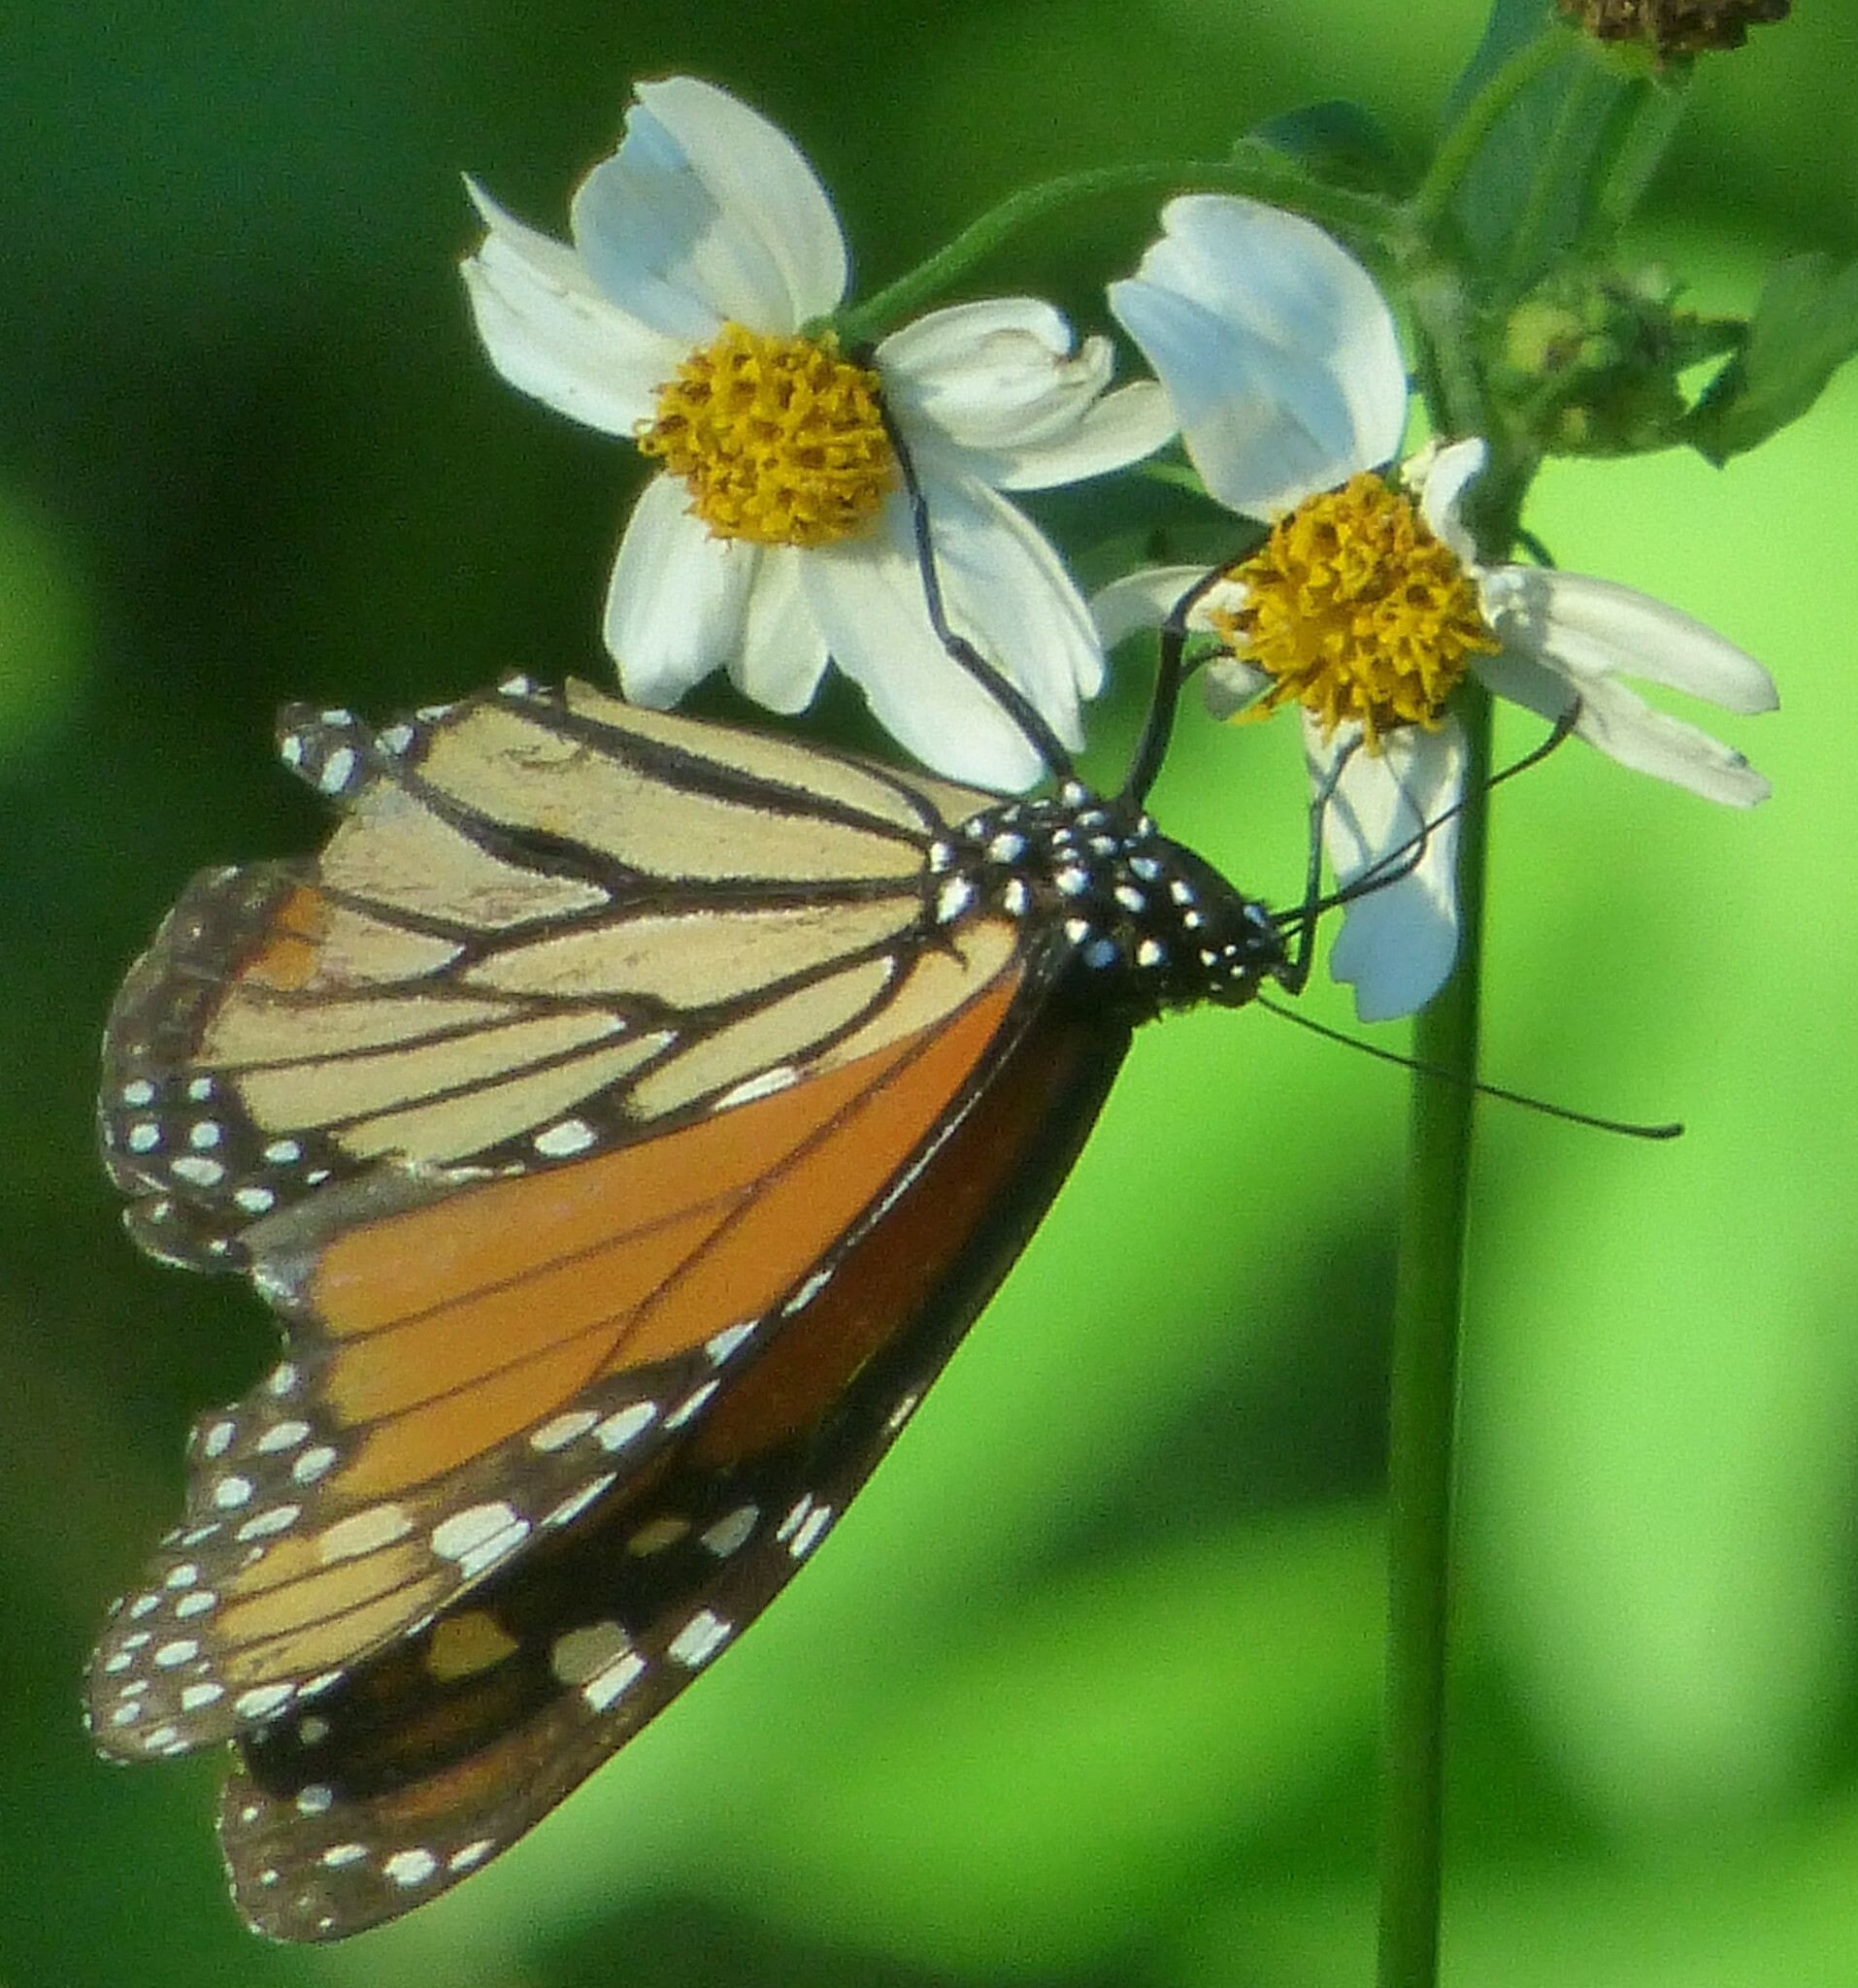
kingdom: Animalia
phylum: Arthropoda
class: Insecta
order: Lepidoptera
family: Nymphalidae
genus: Danaus
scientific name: Danaus plexippus
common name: Monarch
